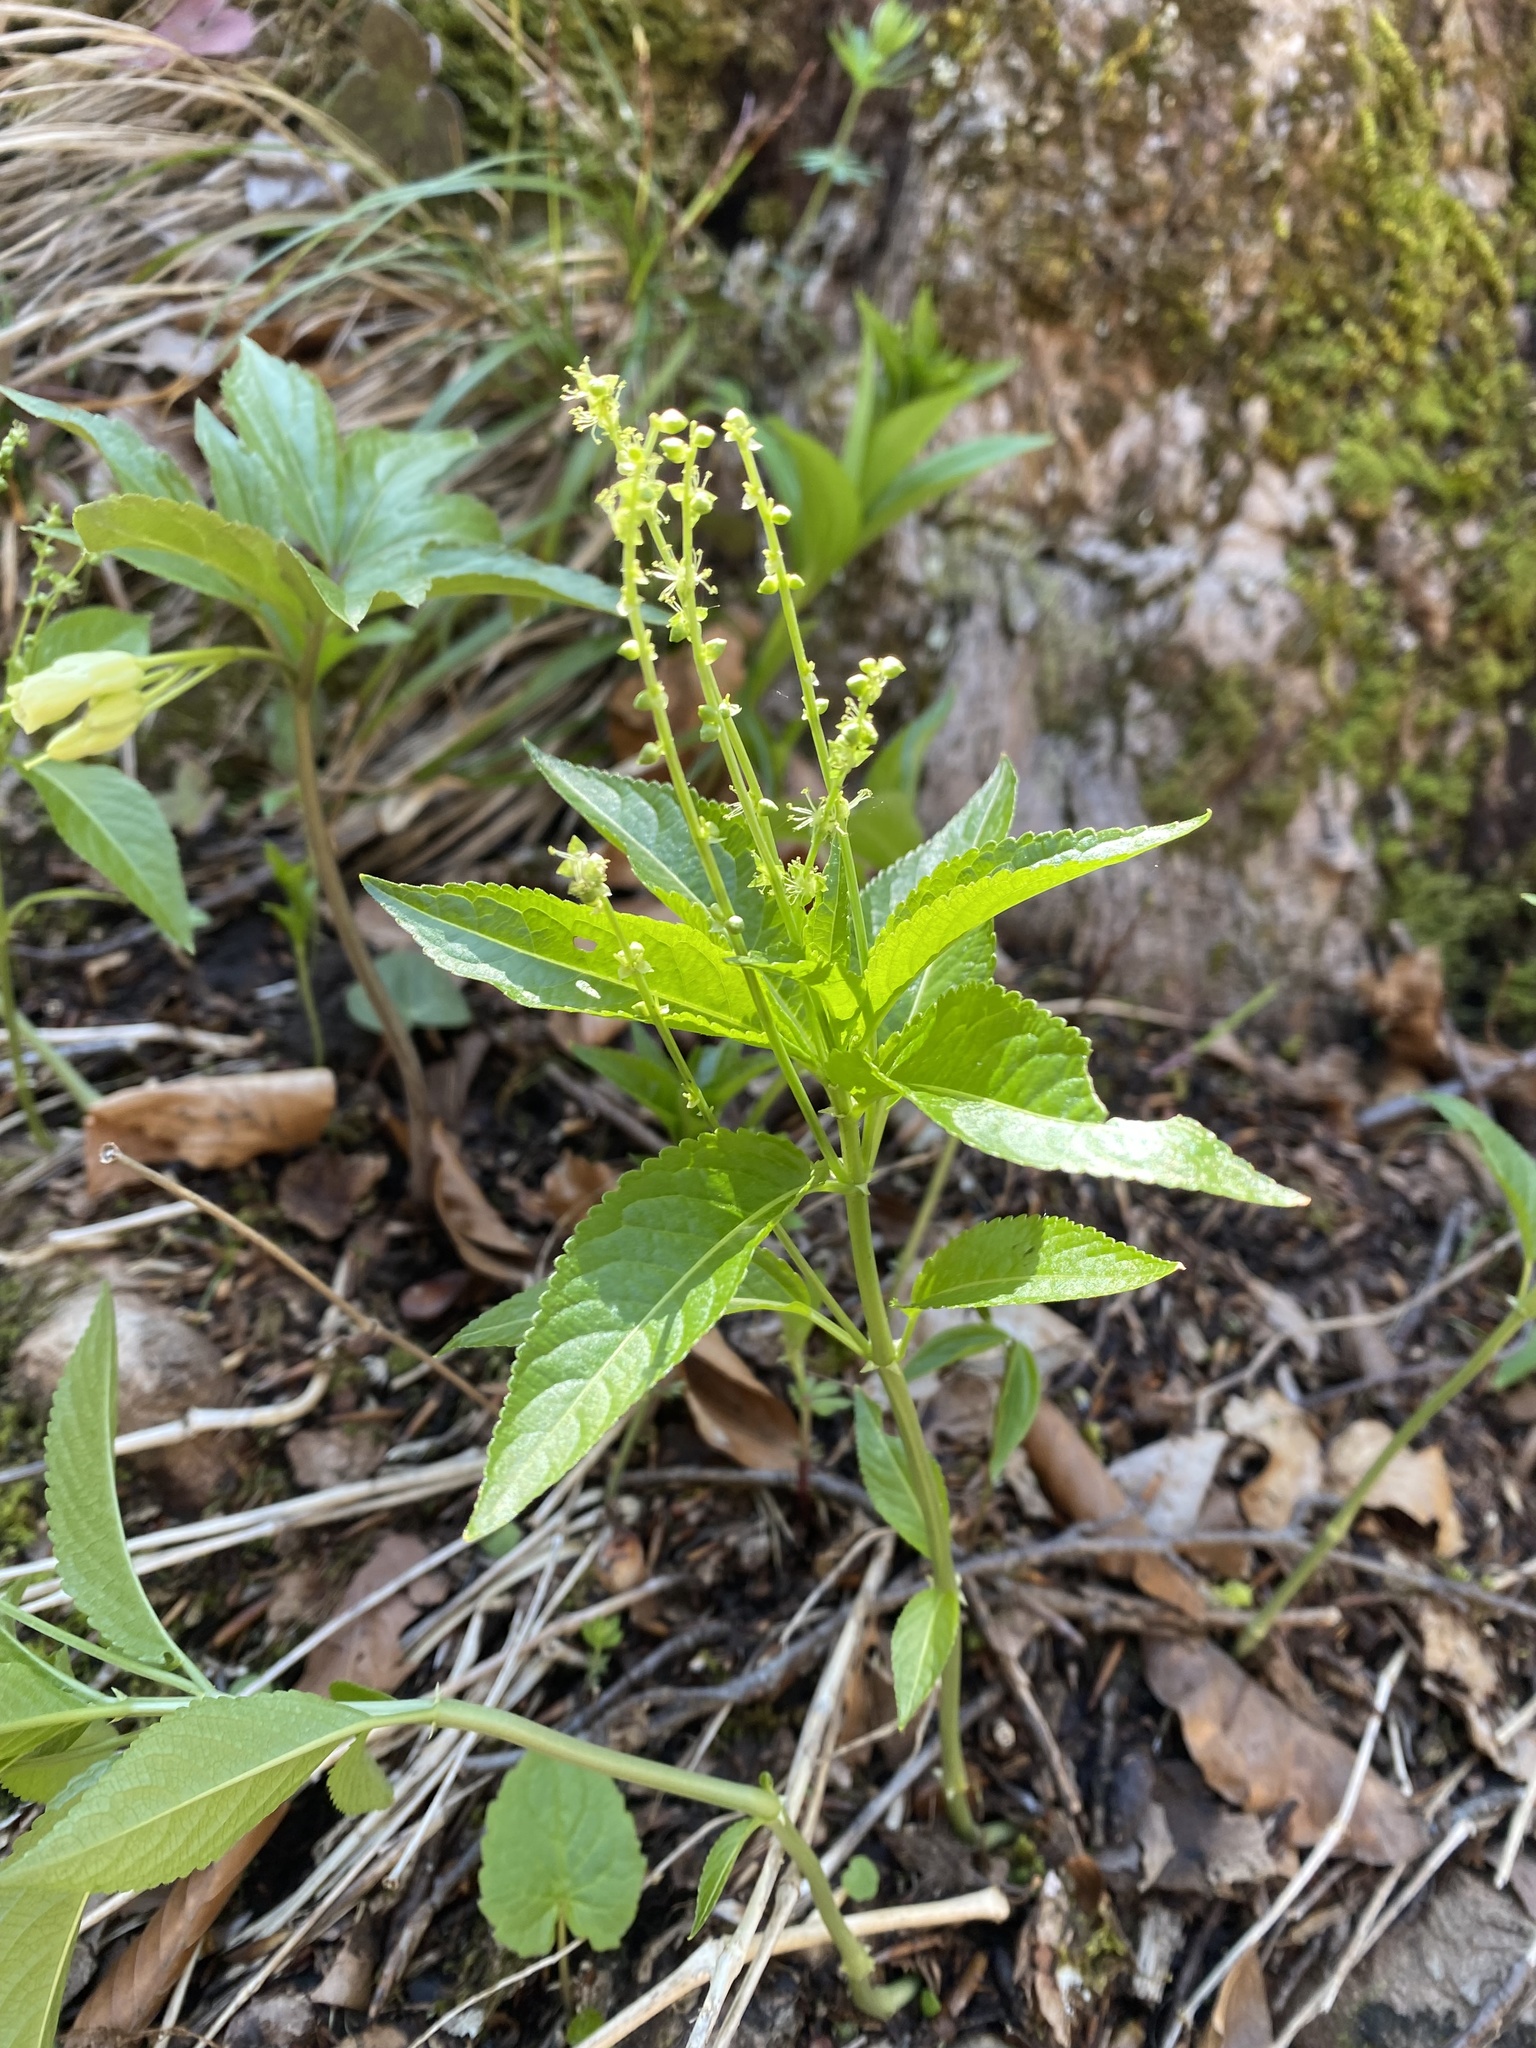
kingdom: Plantae
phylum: Tracheophyta
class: Magnoliopsida
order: Malpighiales
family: Euphorbiaceae
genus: Mercurialis
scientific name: Mercurialis perennis
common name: Dog mercury
